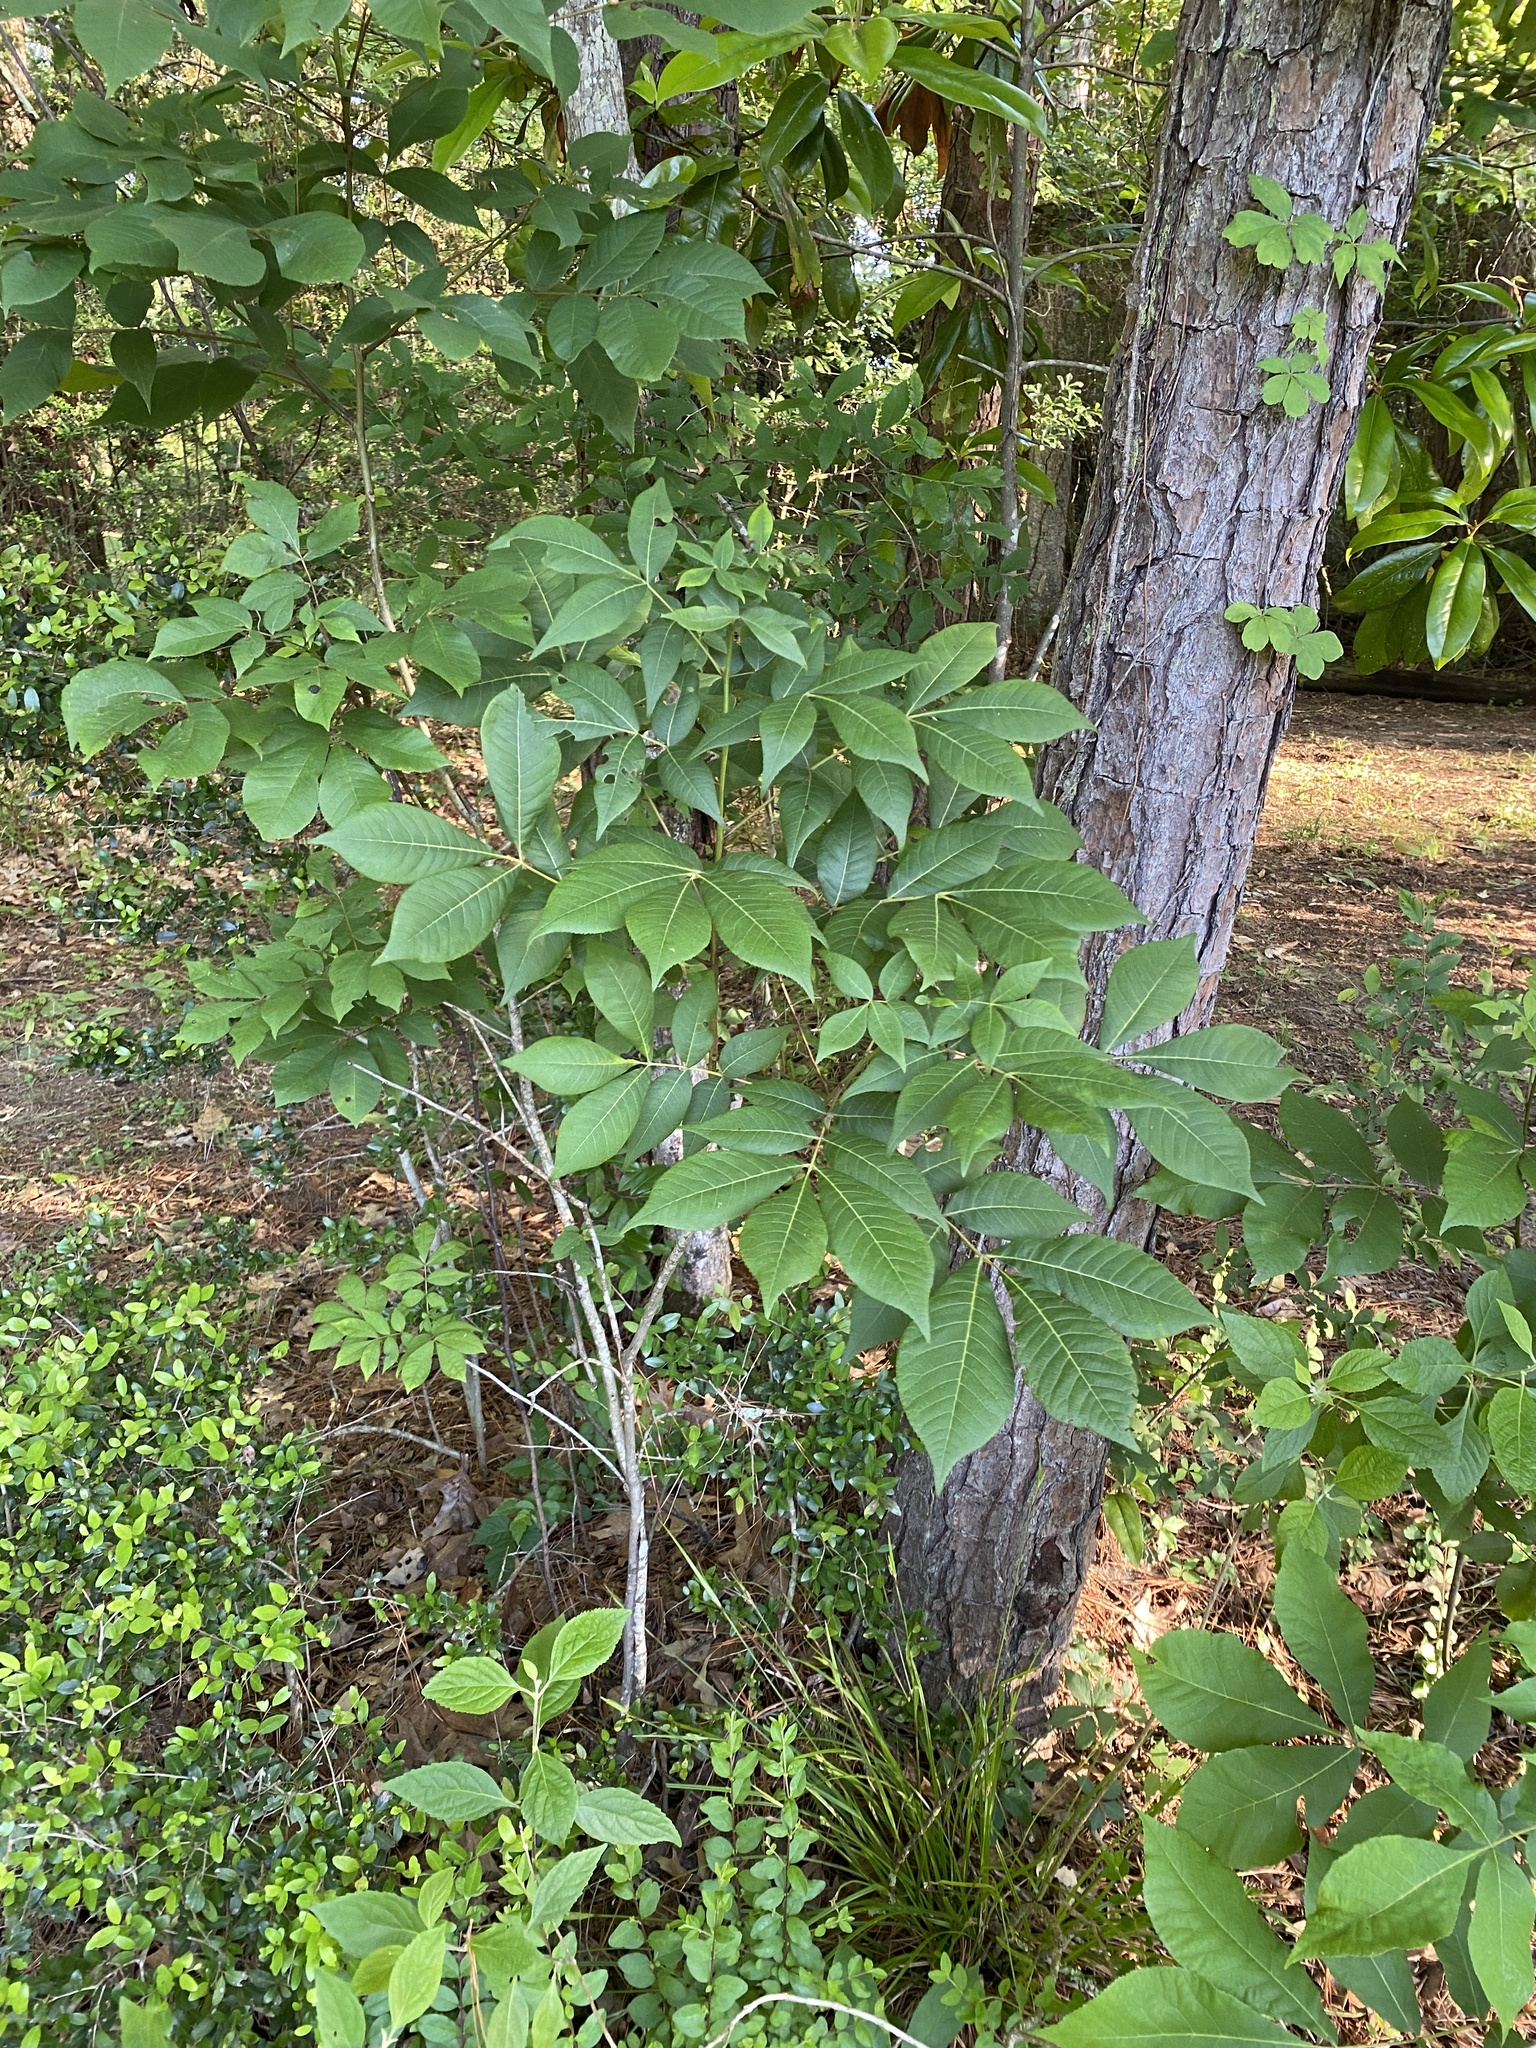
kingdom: Plantae
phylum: Tracheophyta
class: Magnoliopsida
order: Fagales
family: Juglandaceae
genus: Carya
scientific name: Carya glabra
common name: Pignut hickory
